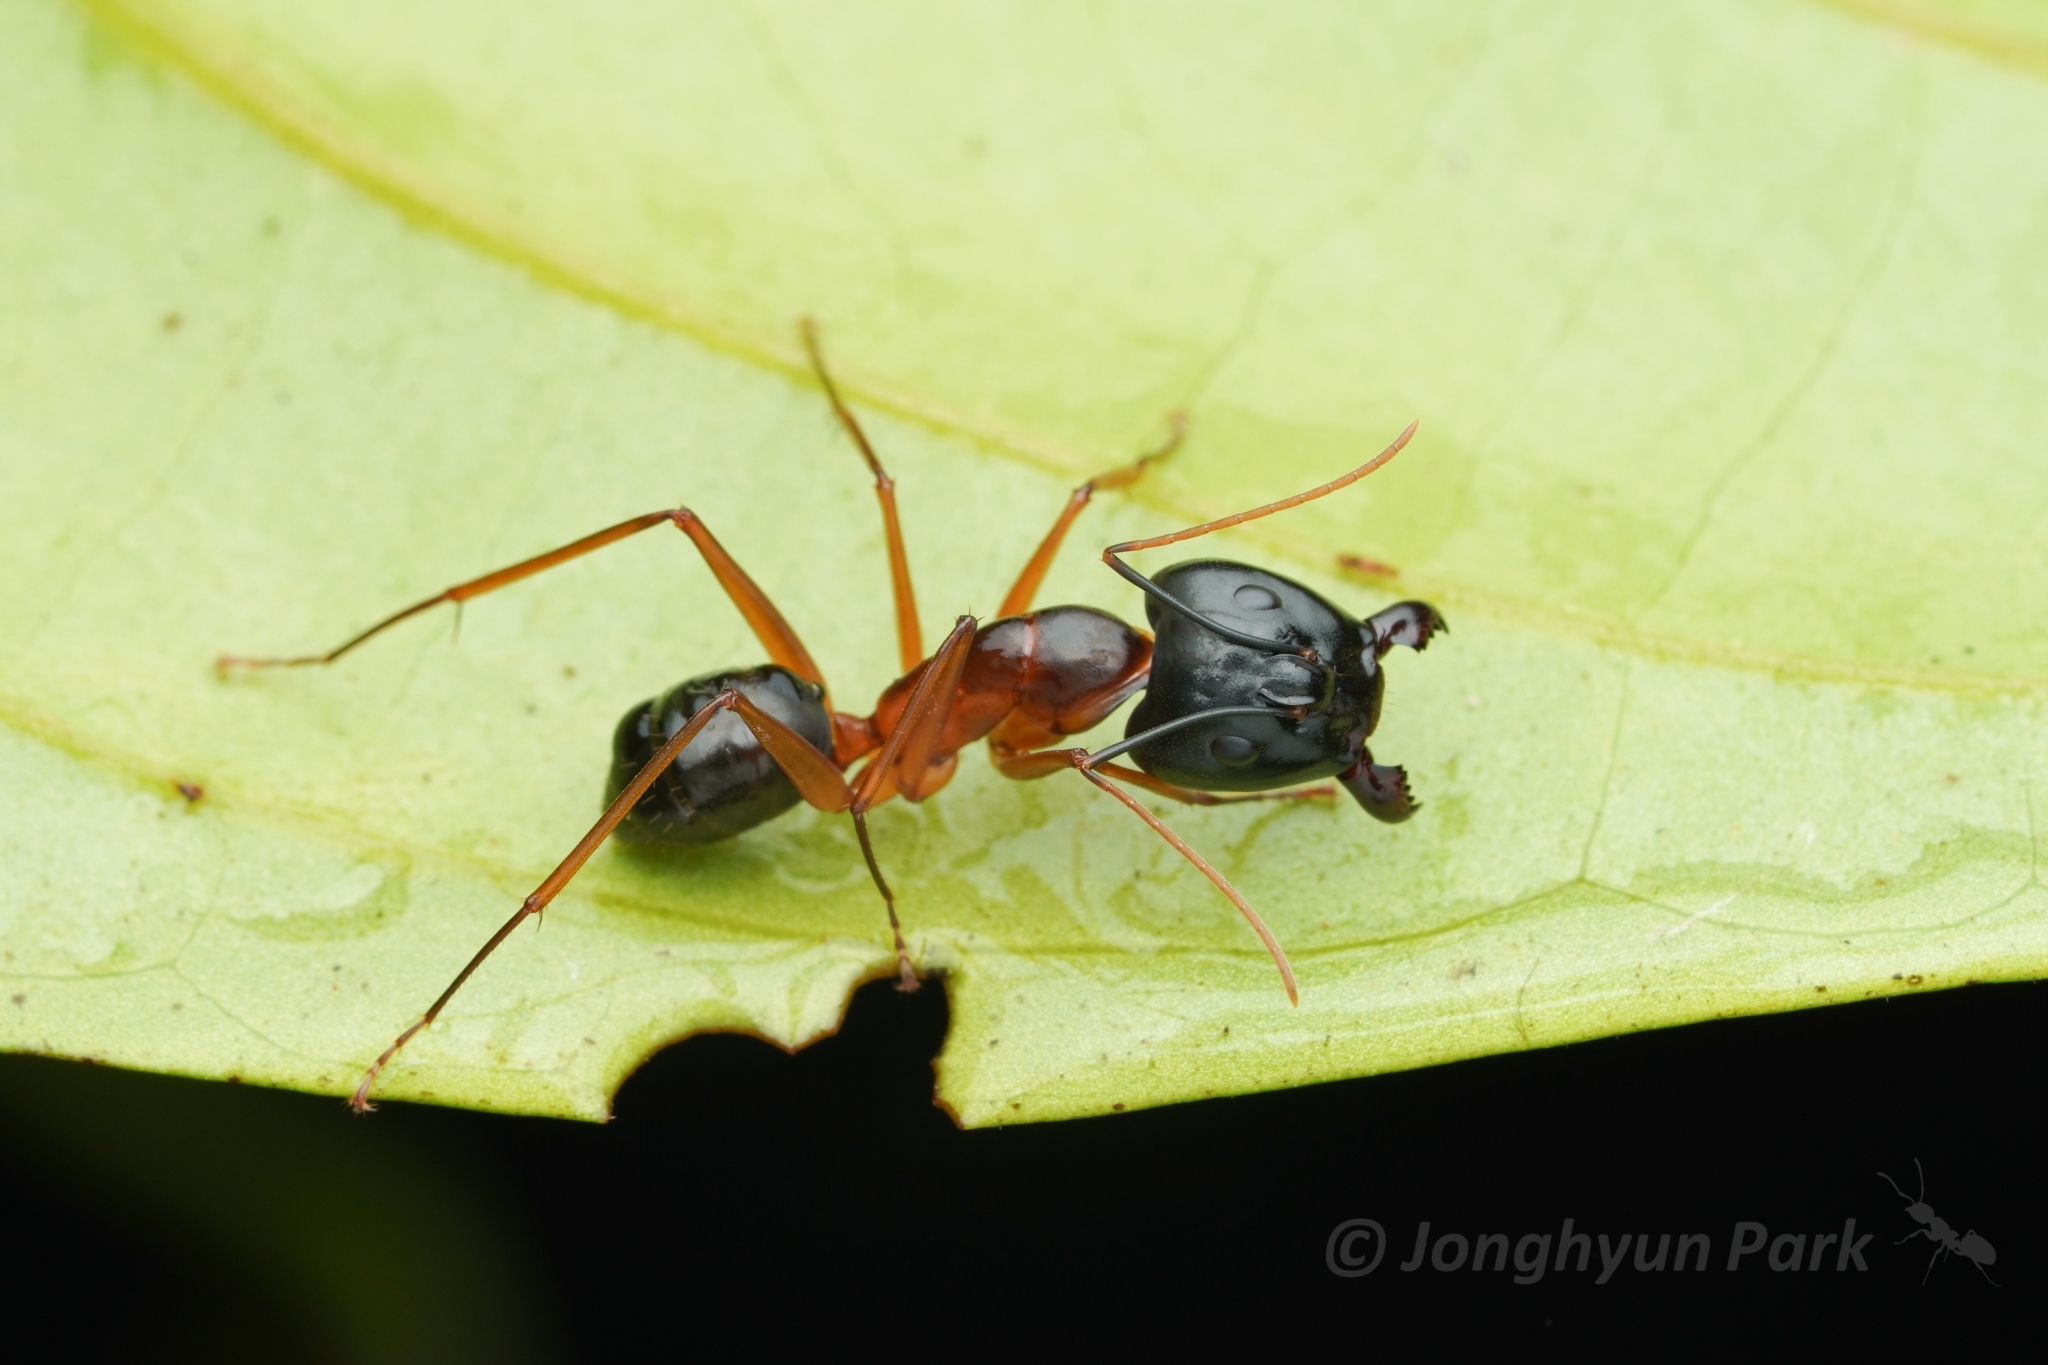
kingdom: Animalia
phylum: Arthropoda
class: Insecta
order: Hymenoptera
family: Formicidae
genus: Camponotus
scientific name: Camponotus festinus
